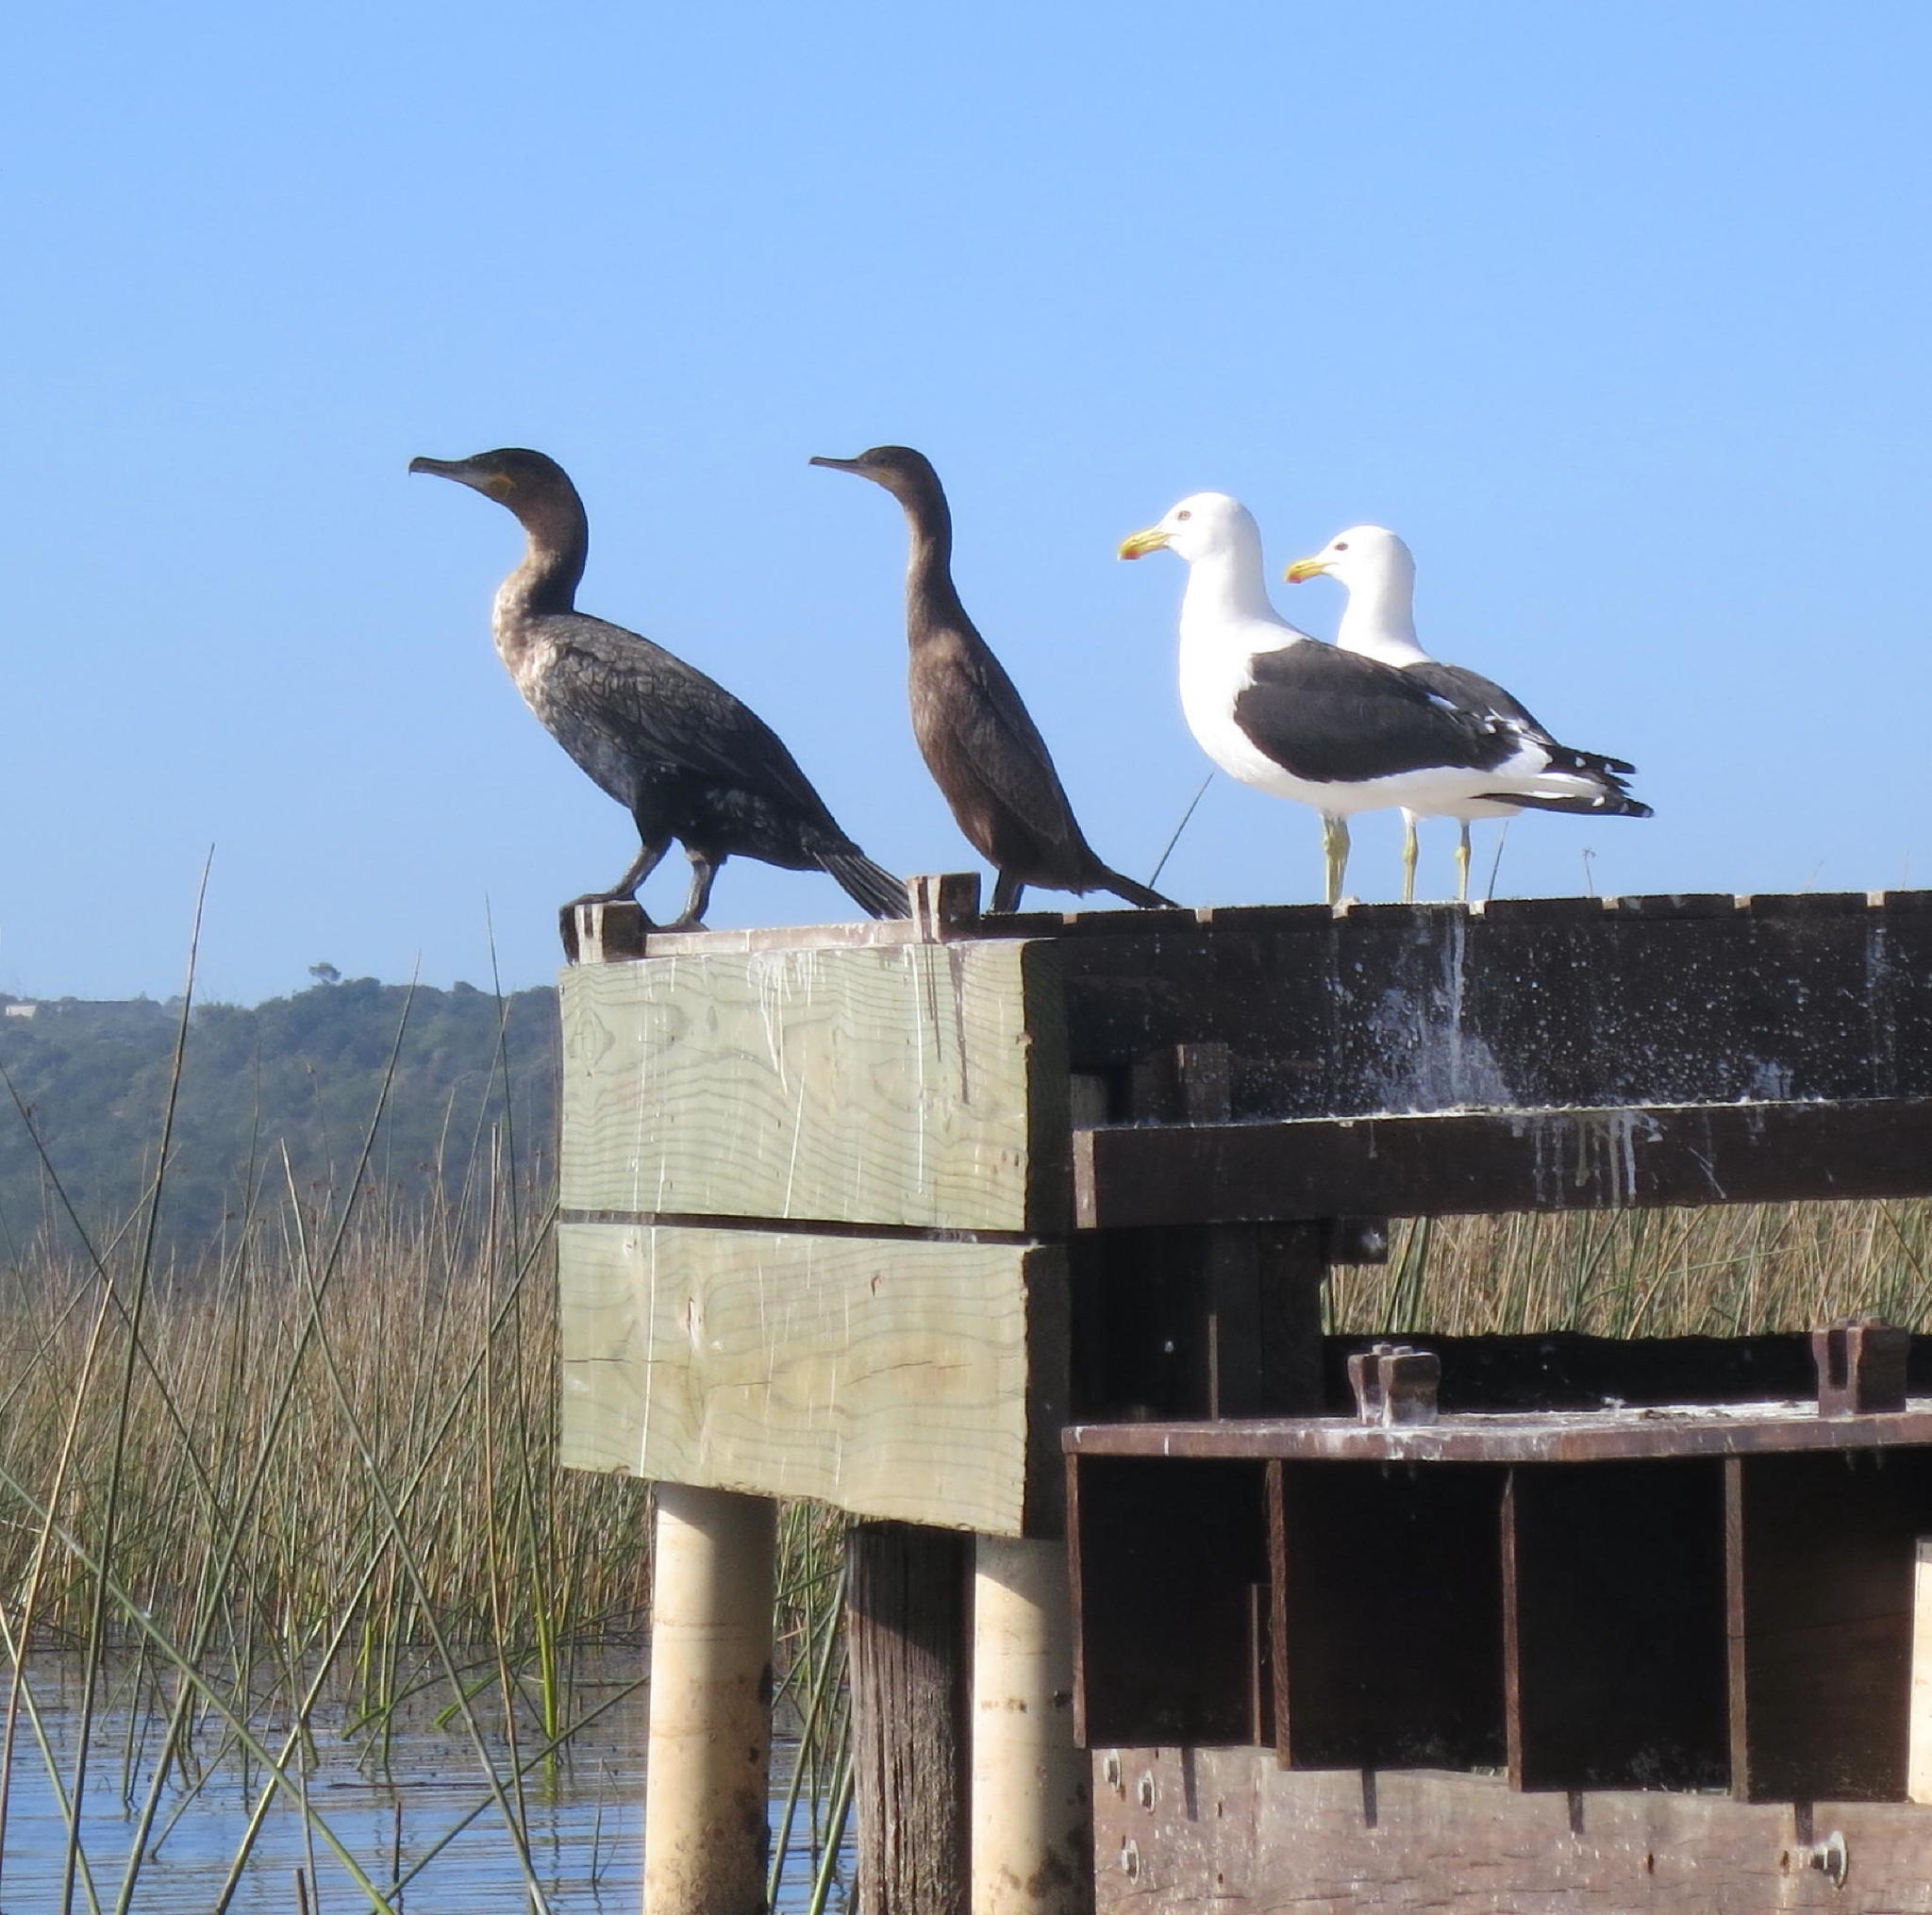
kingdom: Animalia
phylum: Chordata
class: Aves
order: Charadriiformes
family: Laridae
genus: Larus
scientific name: Larus dominicanus
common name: Kelp gull
